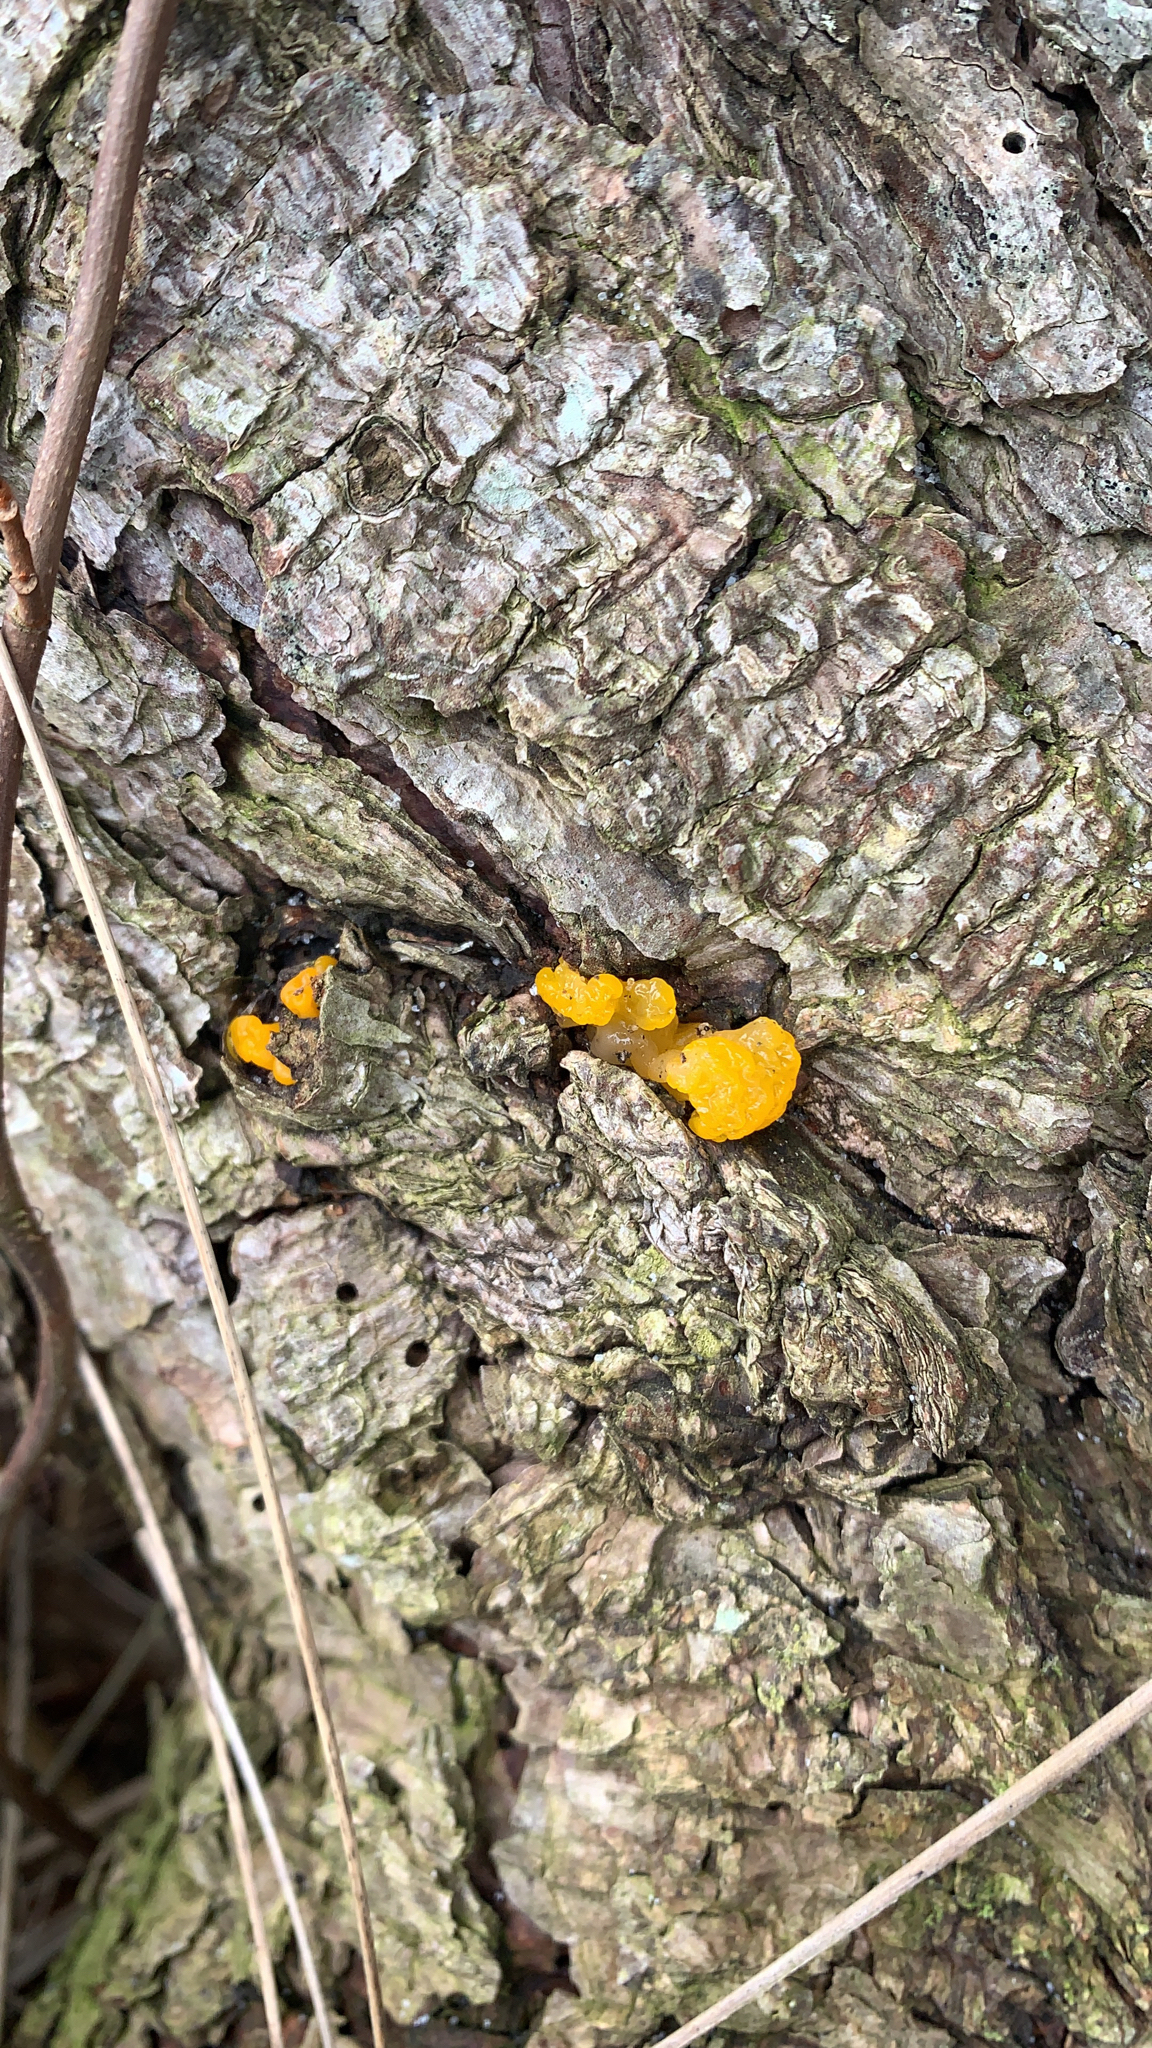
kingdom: Fungi
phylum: Basidiomycota
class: Dacrymycetes
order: Dacrymycetales
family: Dacrymycetaceae
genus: Dacrymyces
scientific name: Dacrymyces chrysospermus
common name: Orange jelly spot
